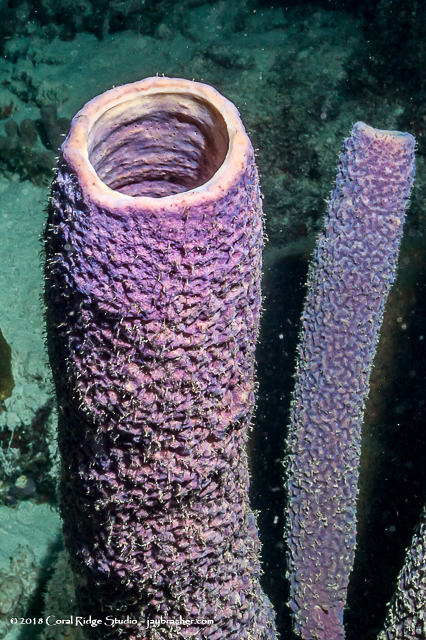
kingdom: Animalia
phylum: Porifera
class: Demospongiae
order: Verongiida
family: Aplysinidae
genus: Aplysina
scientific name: Aplysina archeri
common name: Stove-pipe sponge
